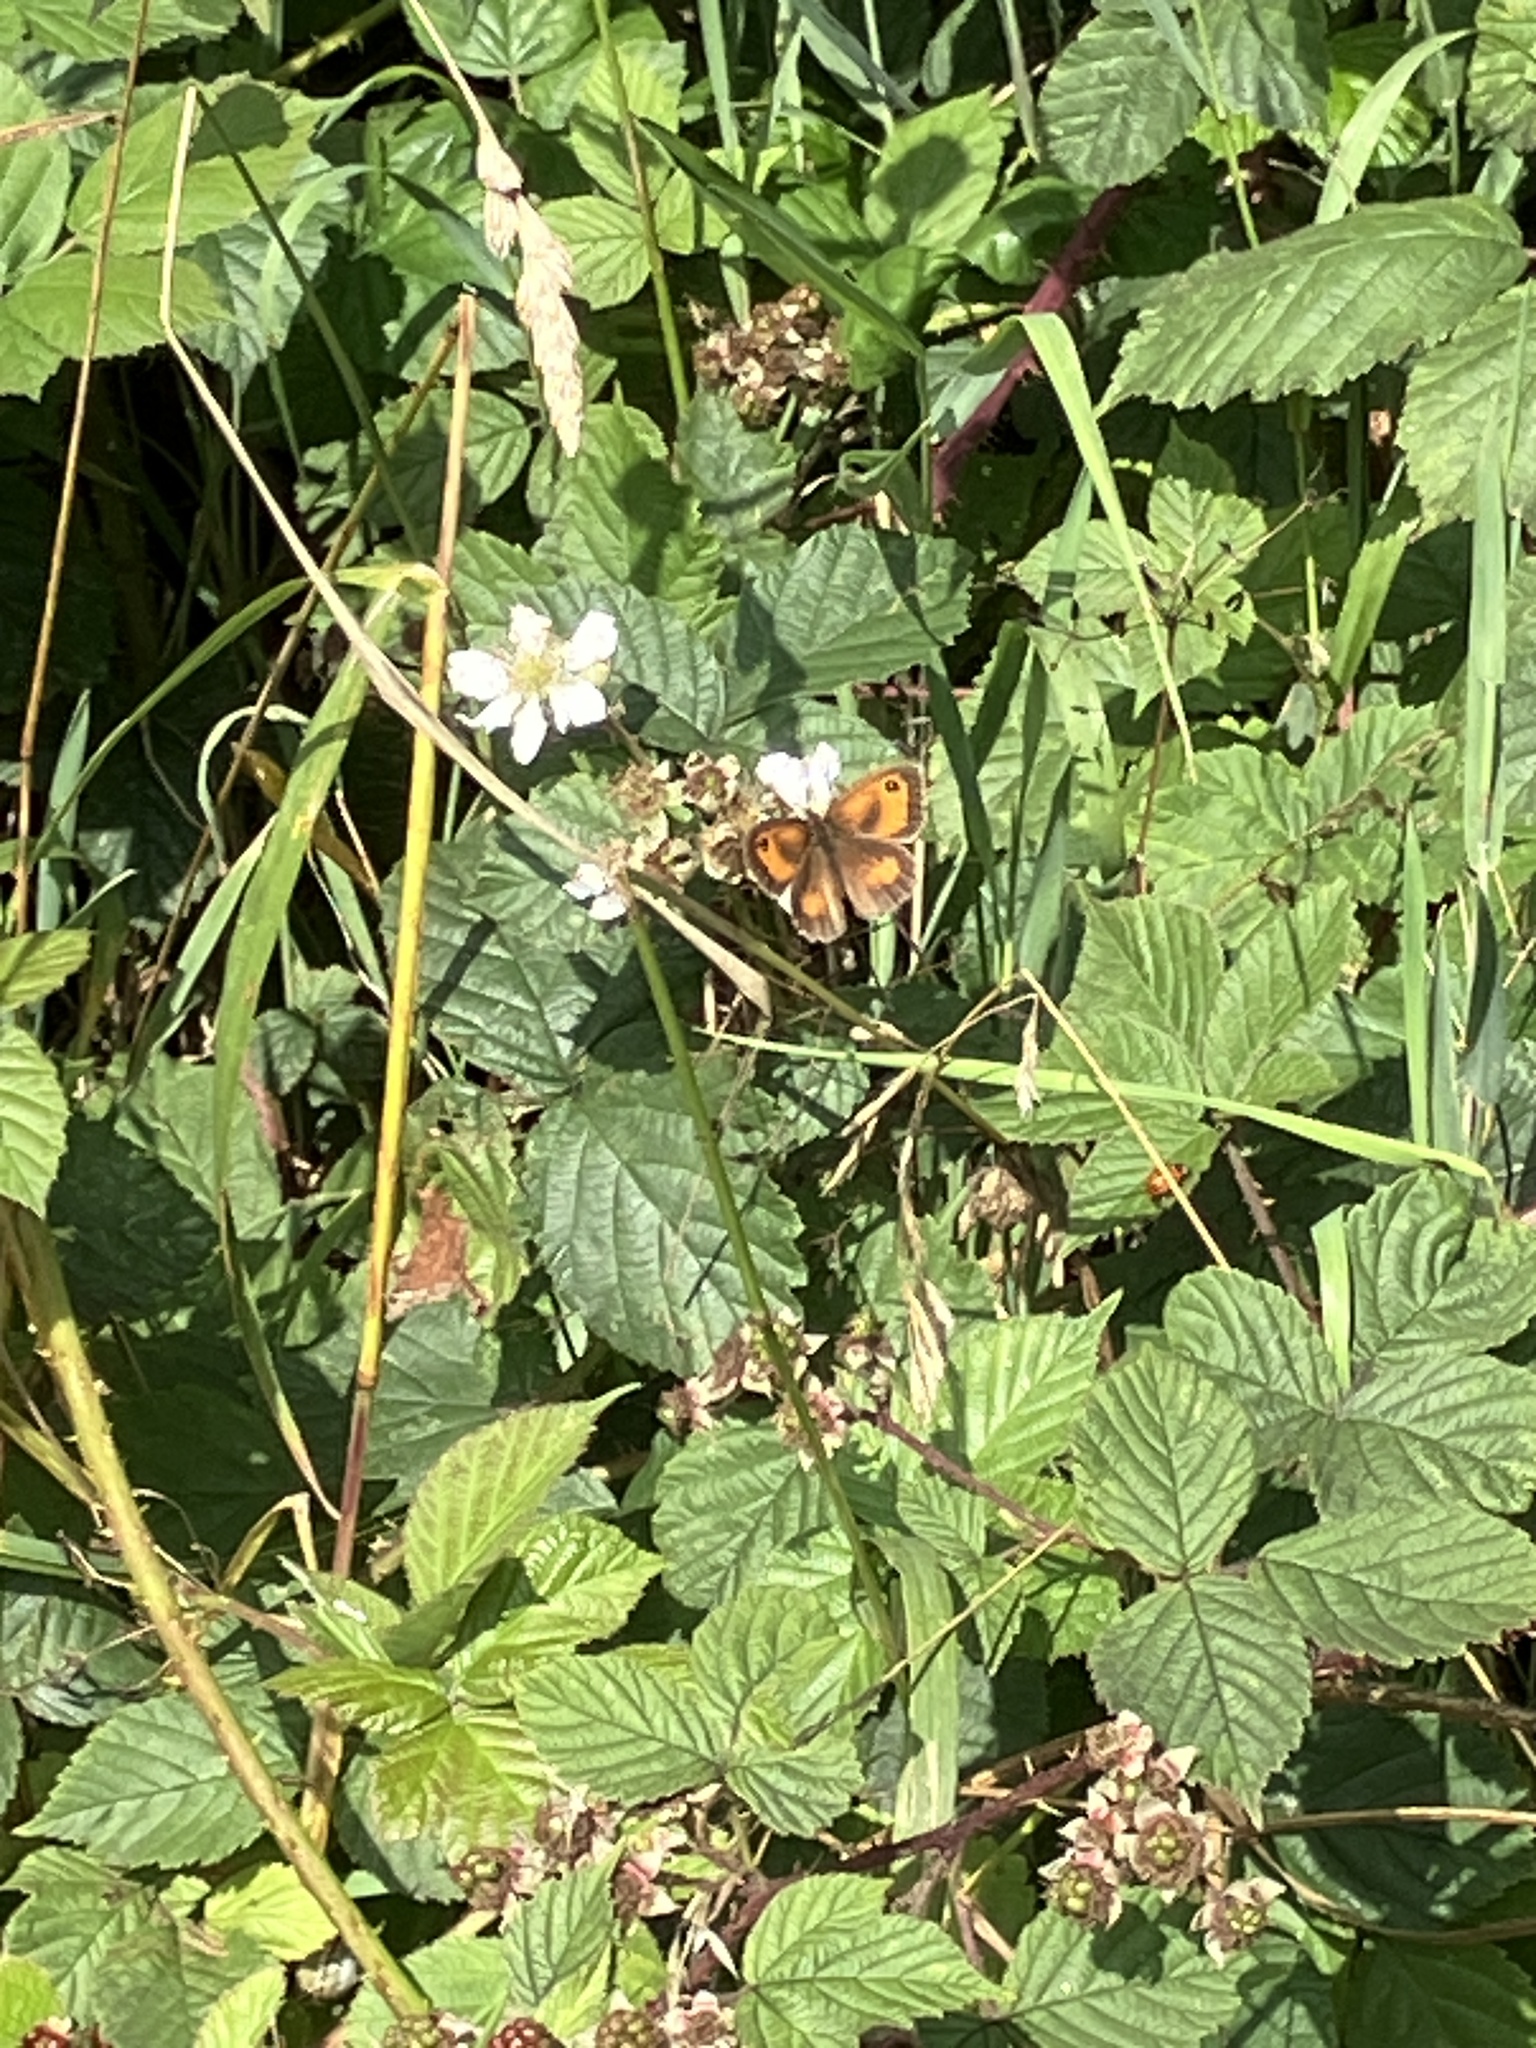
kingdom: Animalia
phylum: Arthropoda
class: Insecta
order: Lepidoptera
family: Nymphalidae
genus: Pyronia
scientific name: Pyronia tithonus
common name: Gatekeeper
